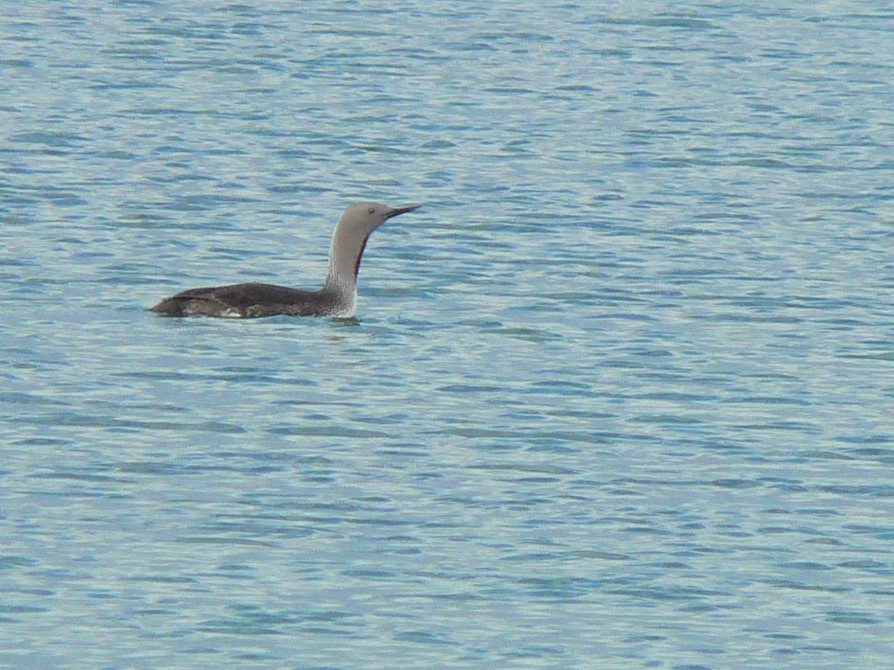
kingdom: Animalia
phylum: Chordata
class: Aves
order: Gaviiformes
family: Gaviidae
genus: Gavia
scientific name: Gavia stellata
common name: Red-throated loon
